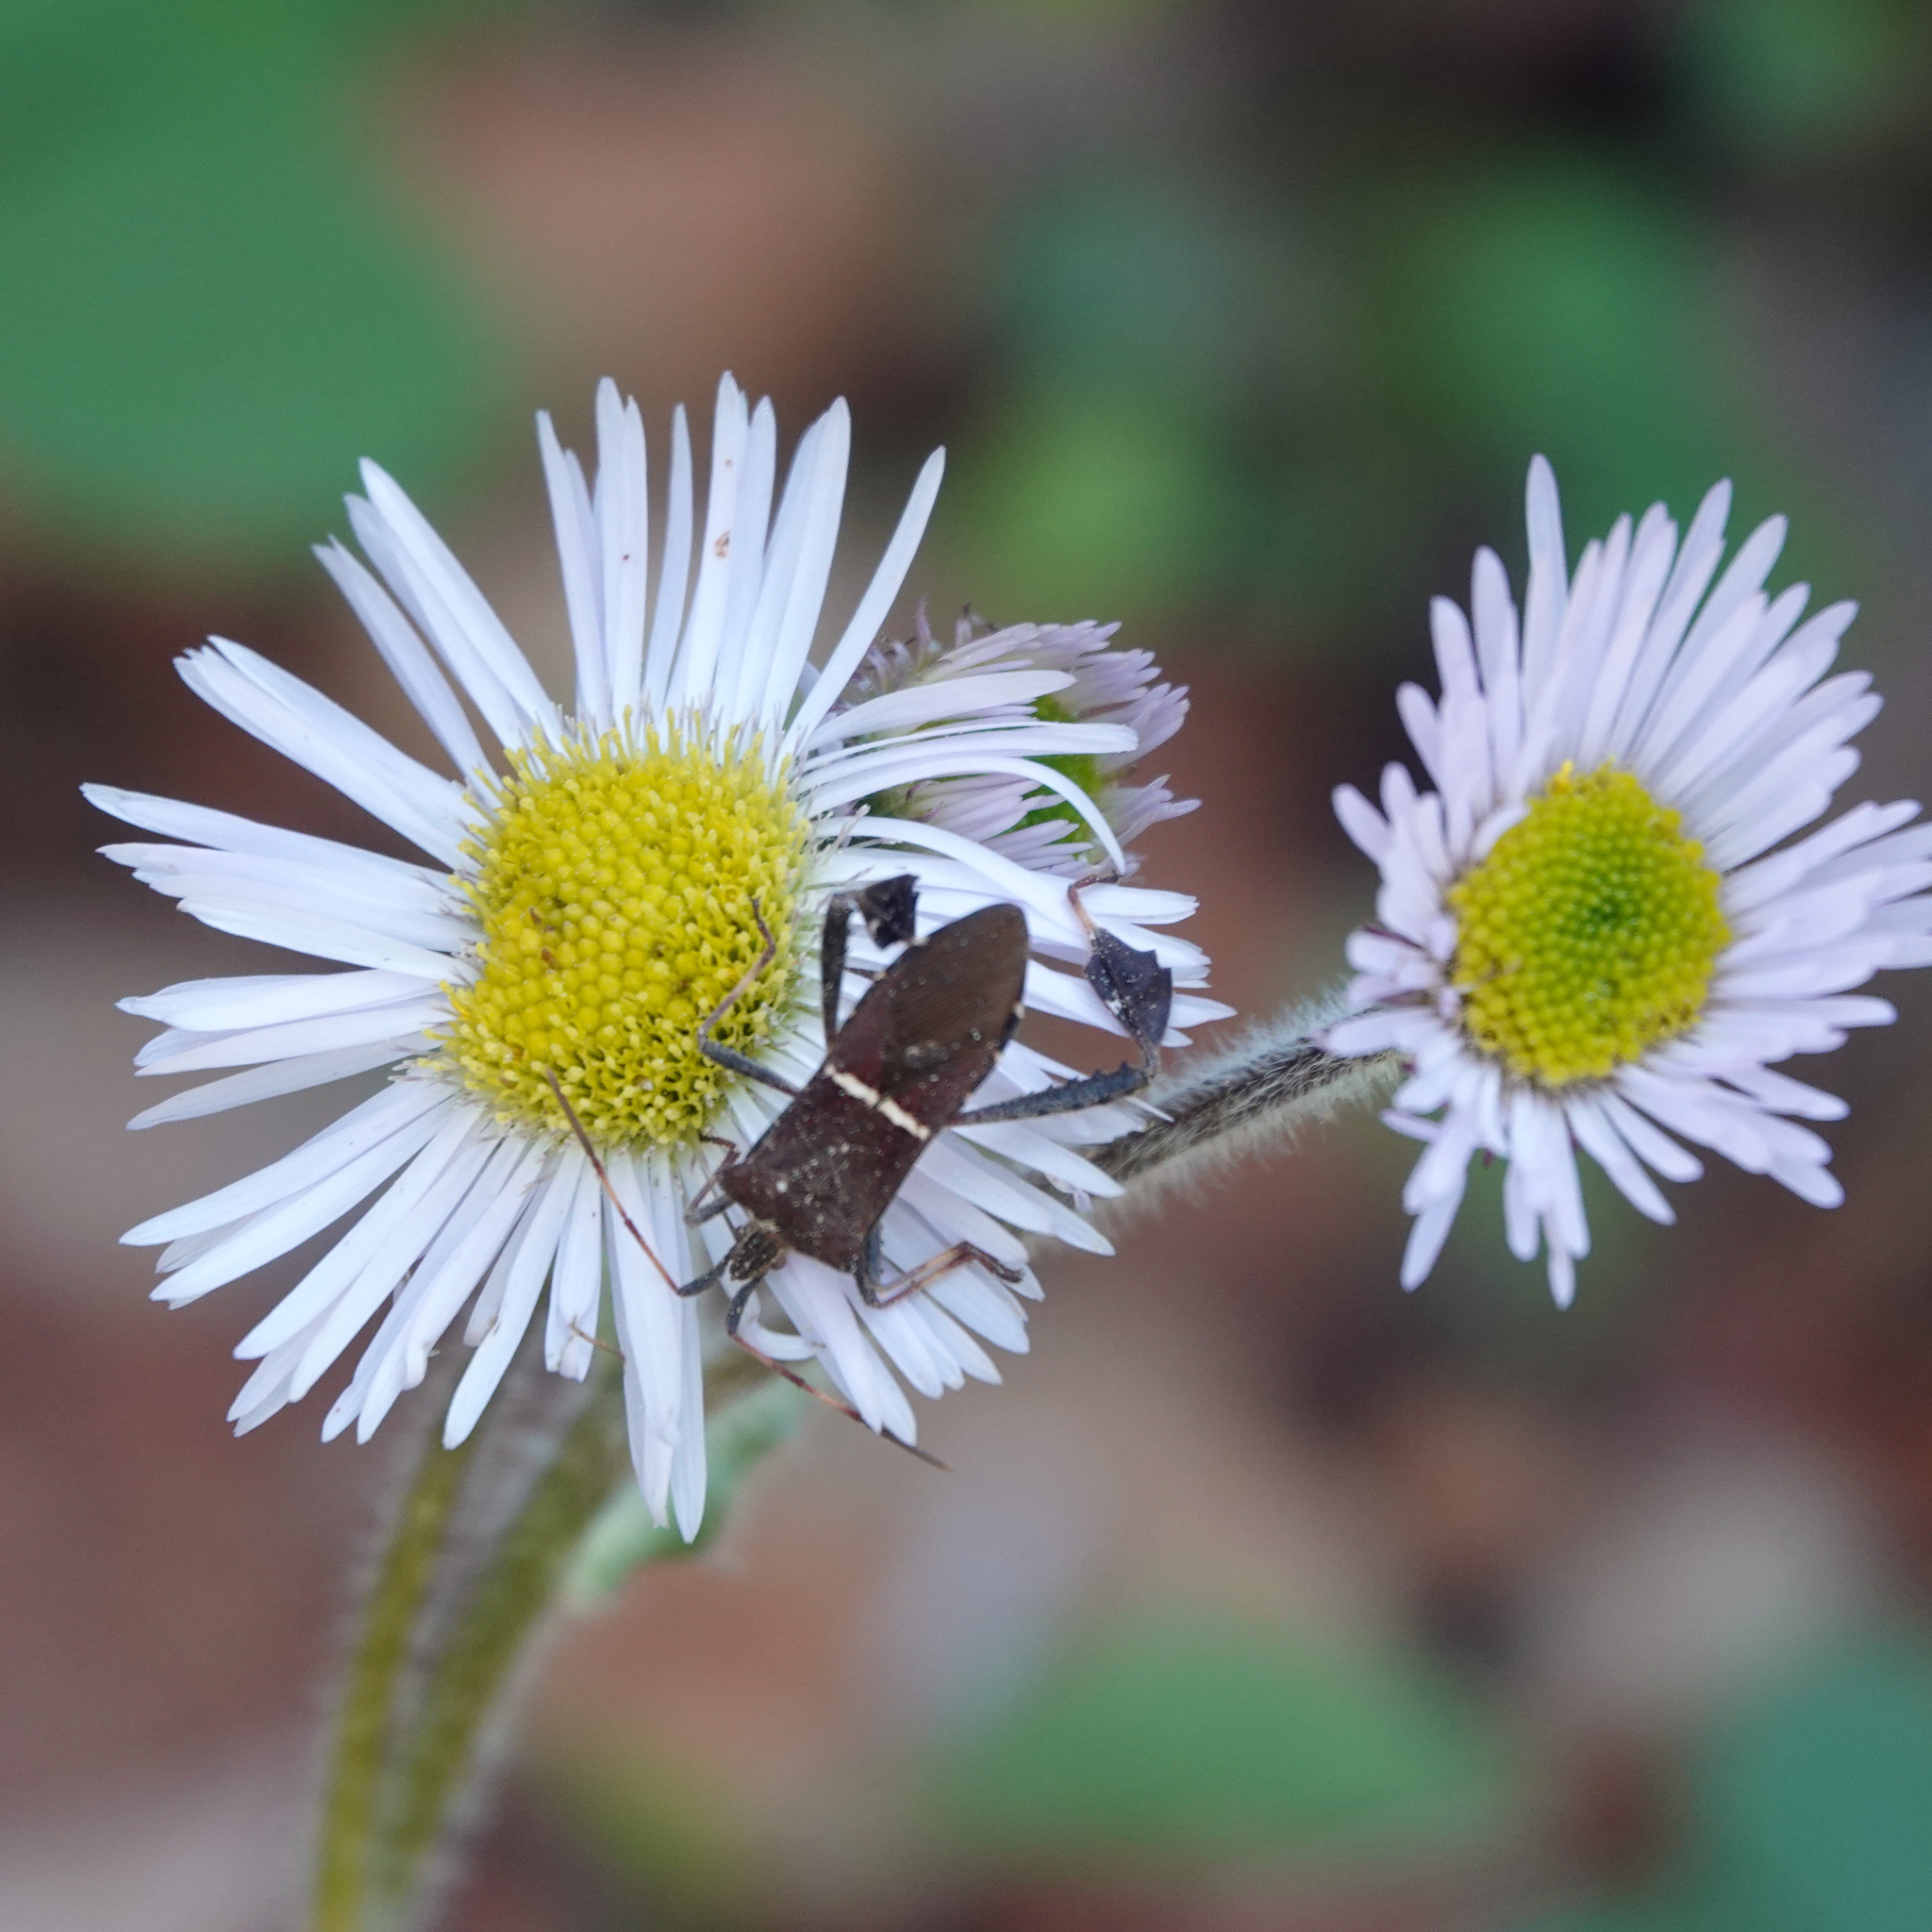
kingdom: Animalia
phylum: Arthropoda
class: Insecta
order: Hemiptera
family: Coreidae
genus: Leptoglossus
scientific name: Leptoglossus phyllopus
